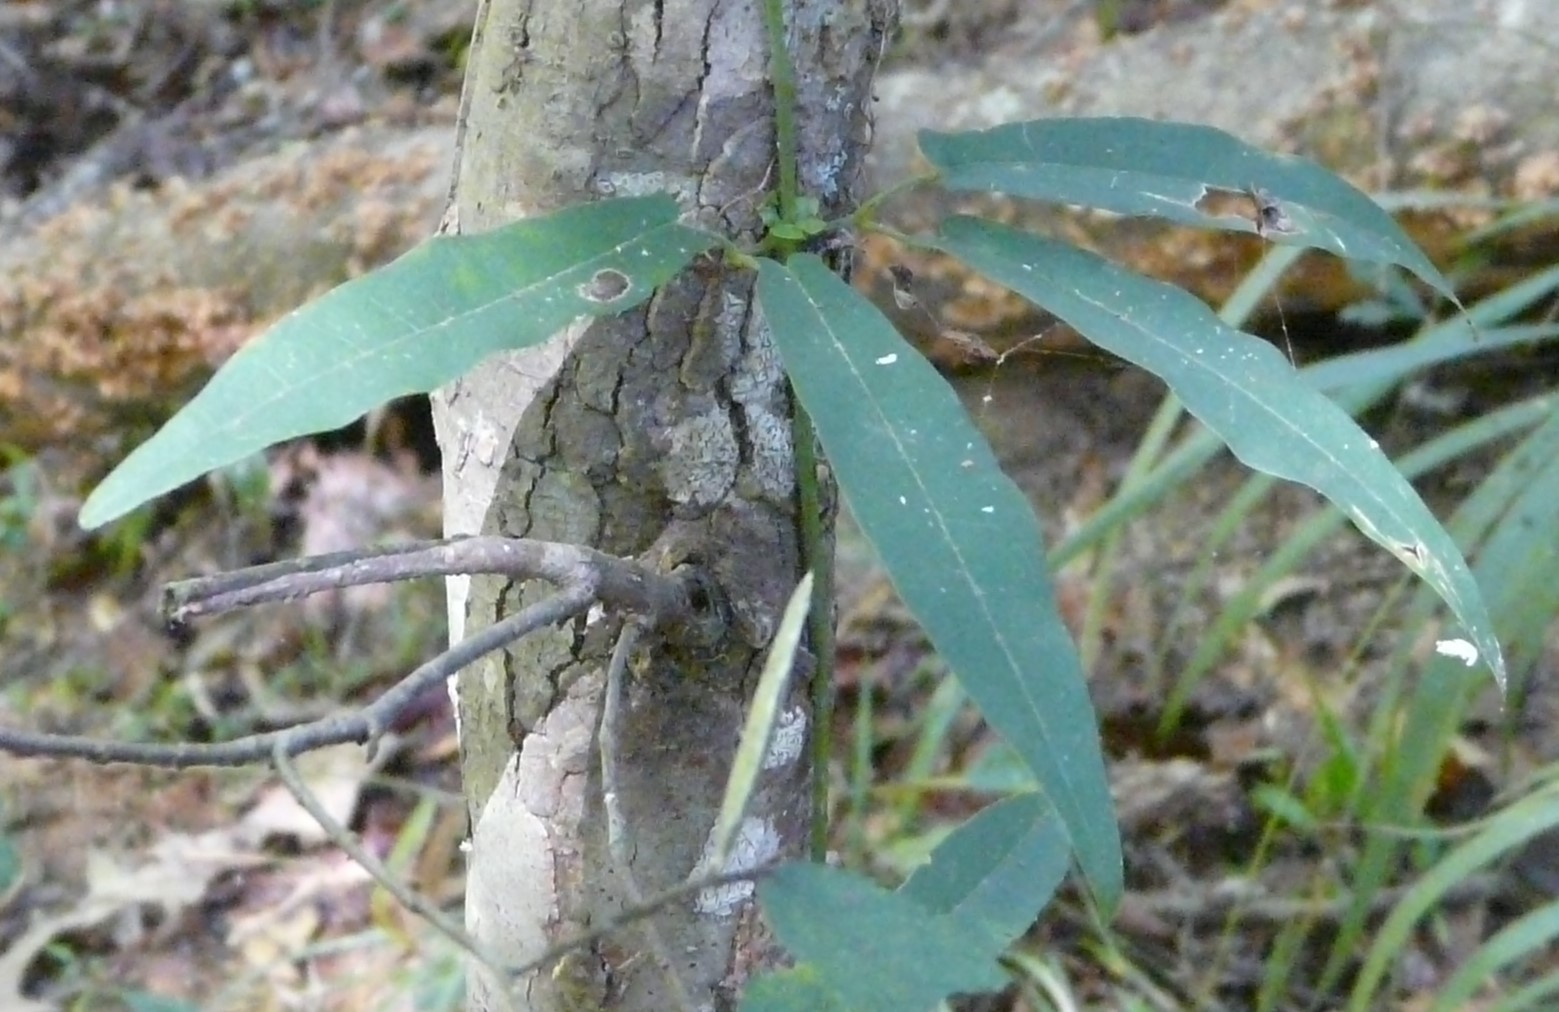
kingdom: Plantae
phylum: Tracheophyta
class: Magnoliopsida
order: Lamiales
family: Bignoniaceae
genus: Bignonia
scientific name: Bignonia capreolata
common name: Crossvine
